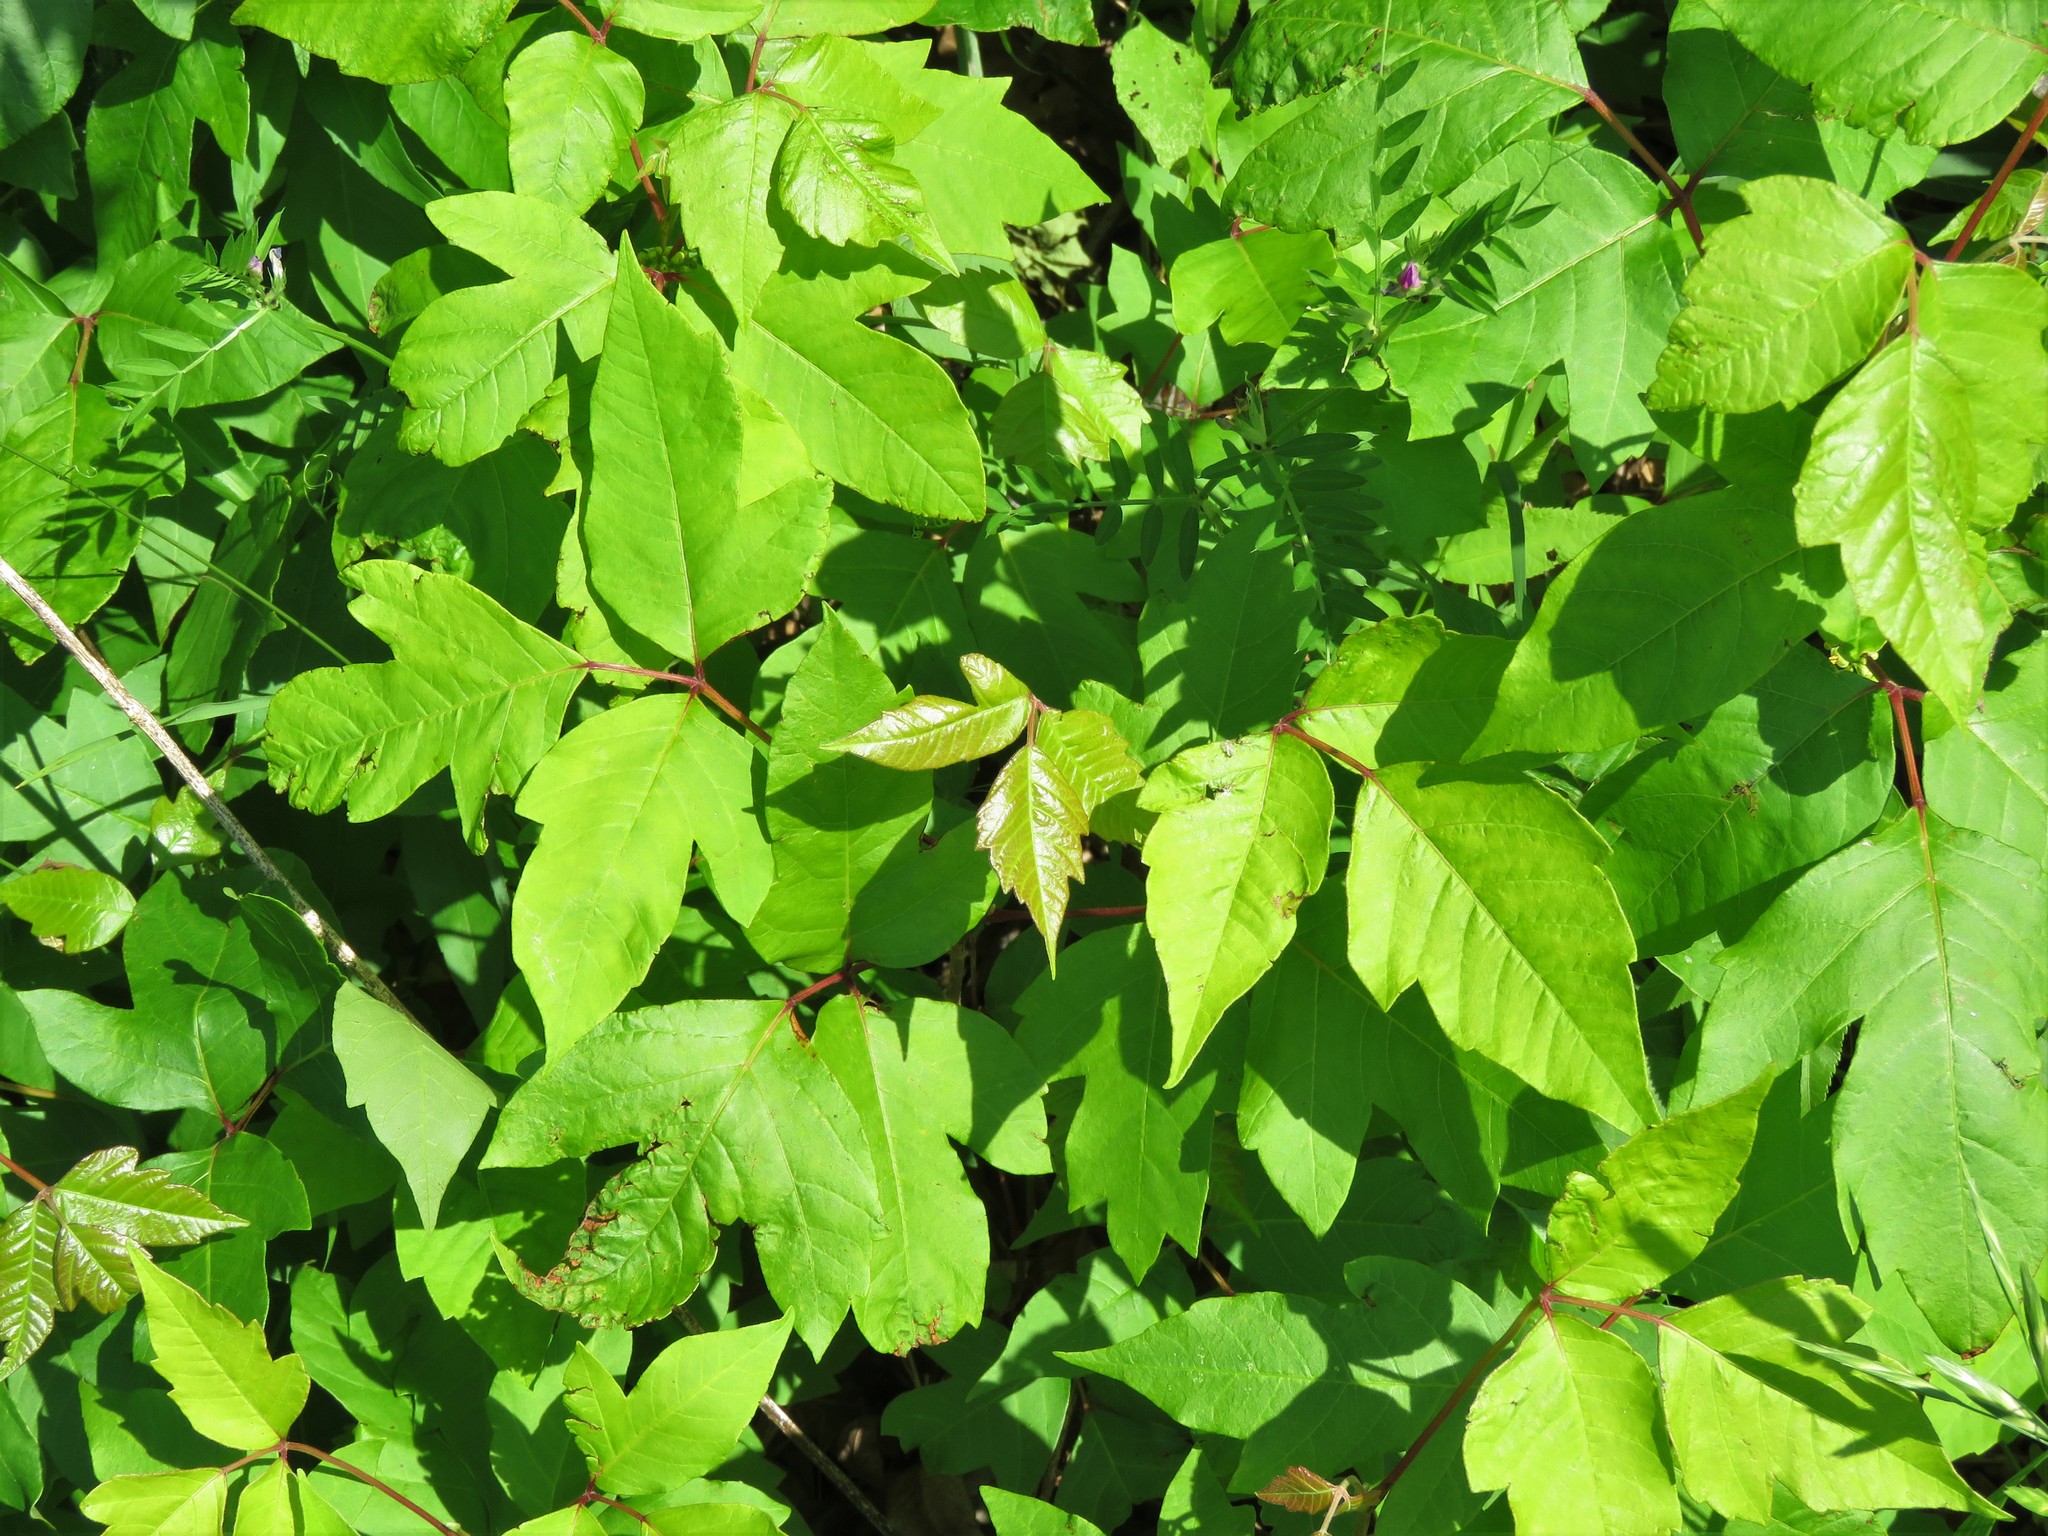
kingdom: Plantae
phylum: Tracheophyta
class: Magnoliopsida
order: Sapindales
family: Anacardiaceae
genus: Toxicodendron
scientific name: Toxicodendron radicans
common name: Poison ivy
